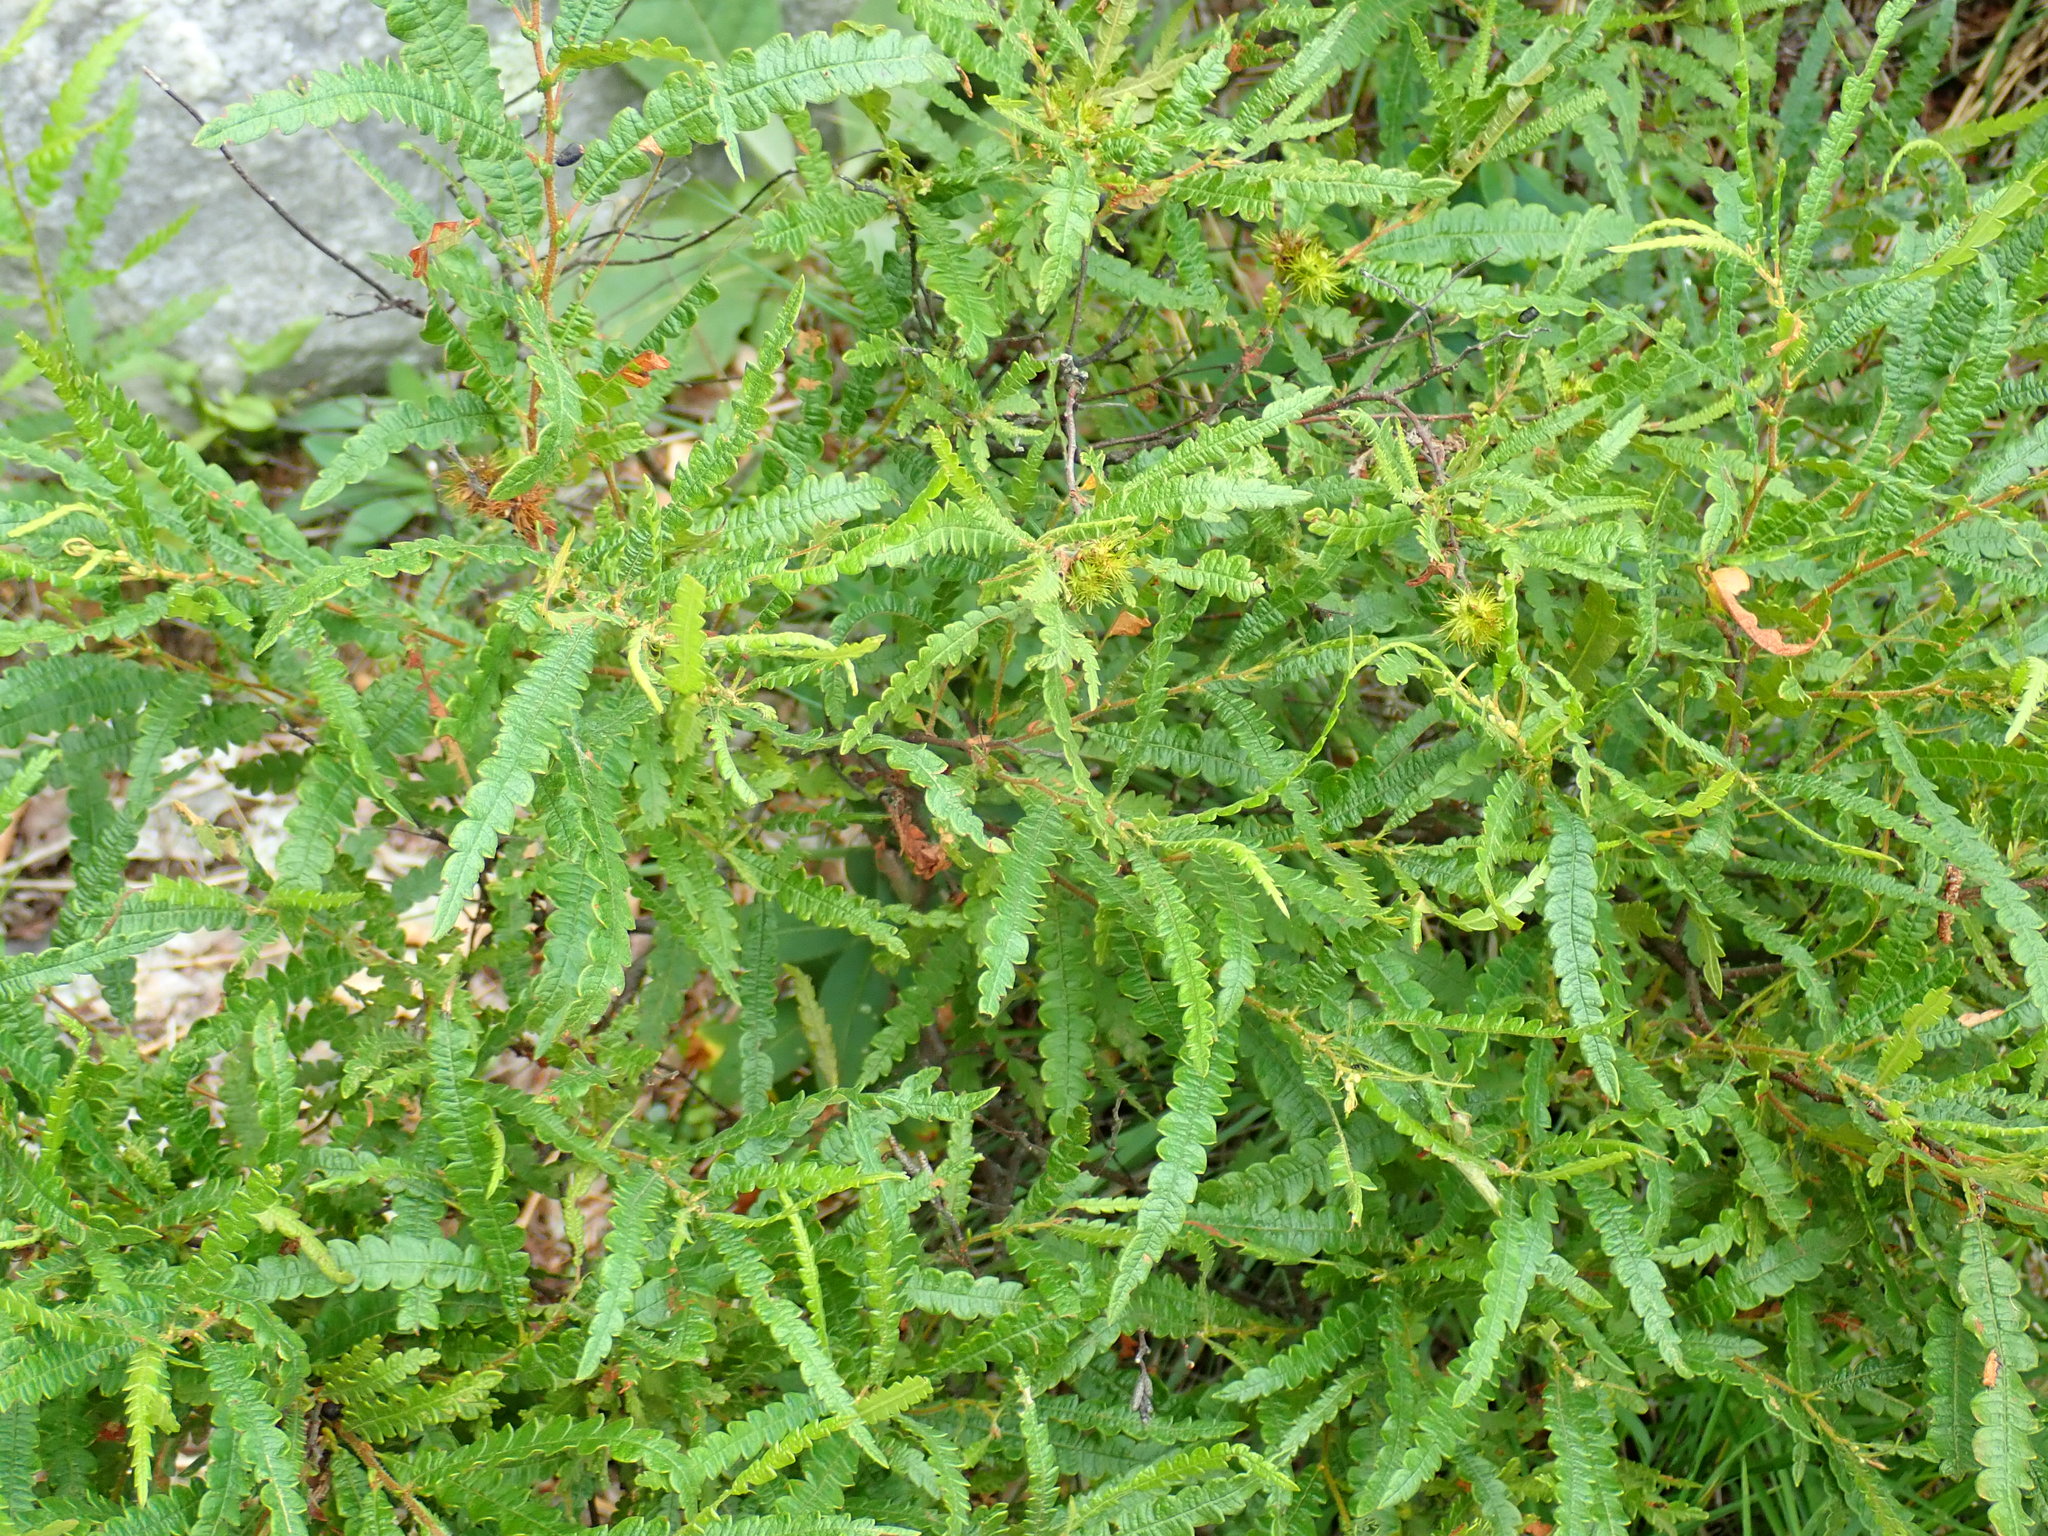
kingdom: Plantae
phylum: Tracheophyta
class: Magnoliopsida
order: Fagales
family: Myricaceae
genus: Comptonia
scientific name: Comptonia peregrina
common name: Sweet-fern
